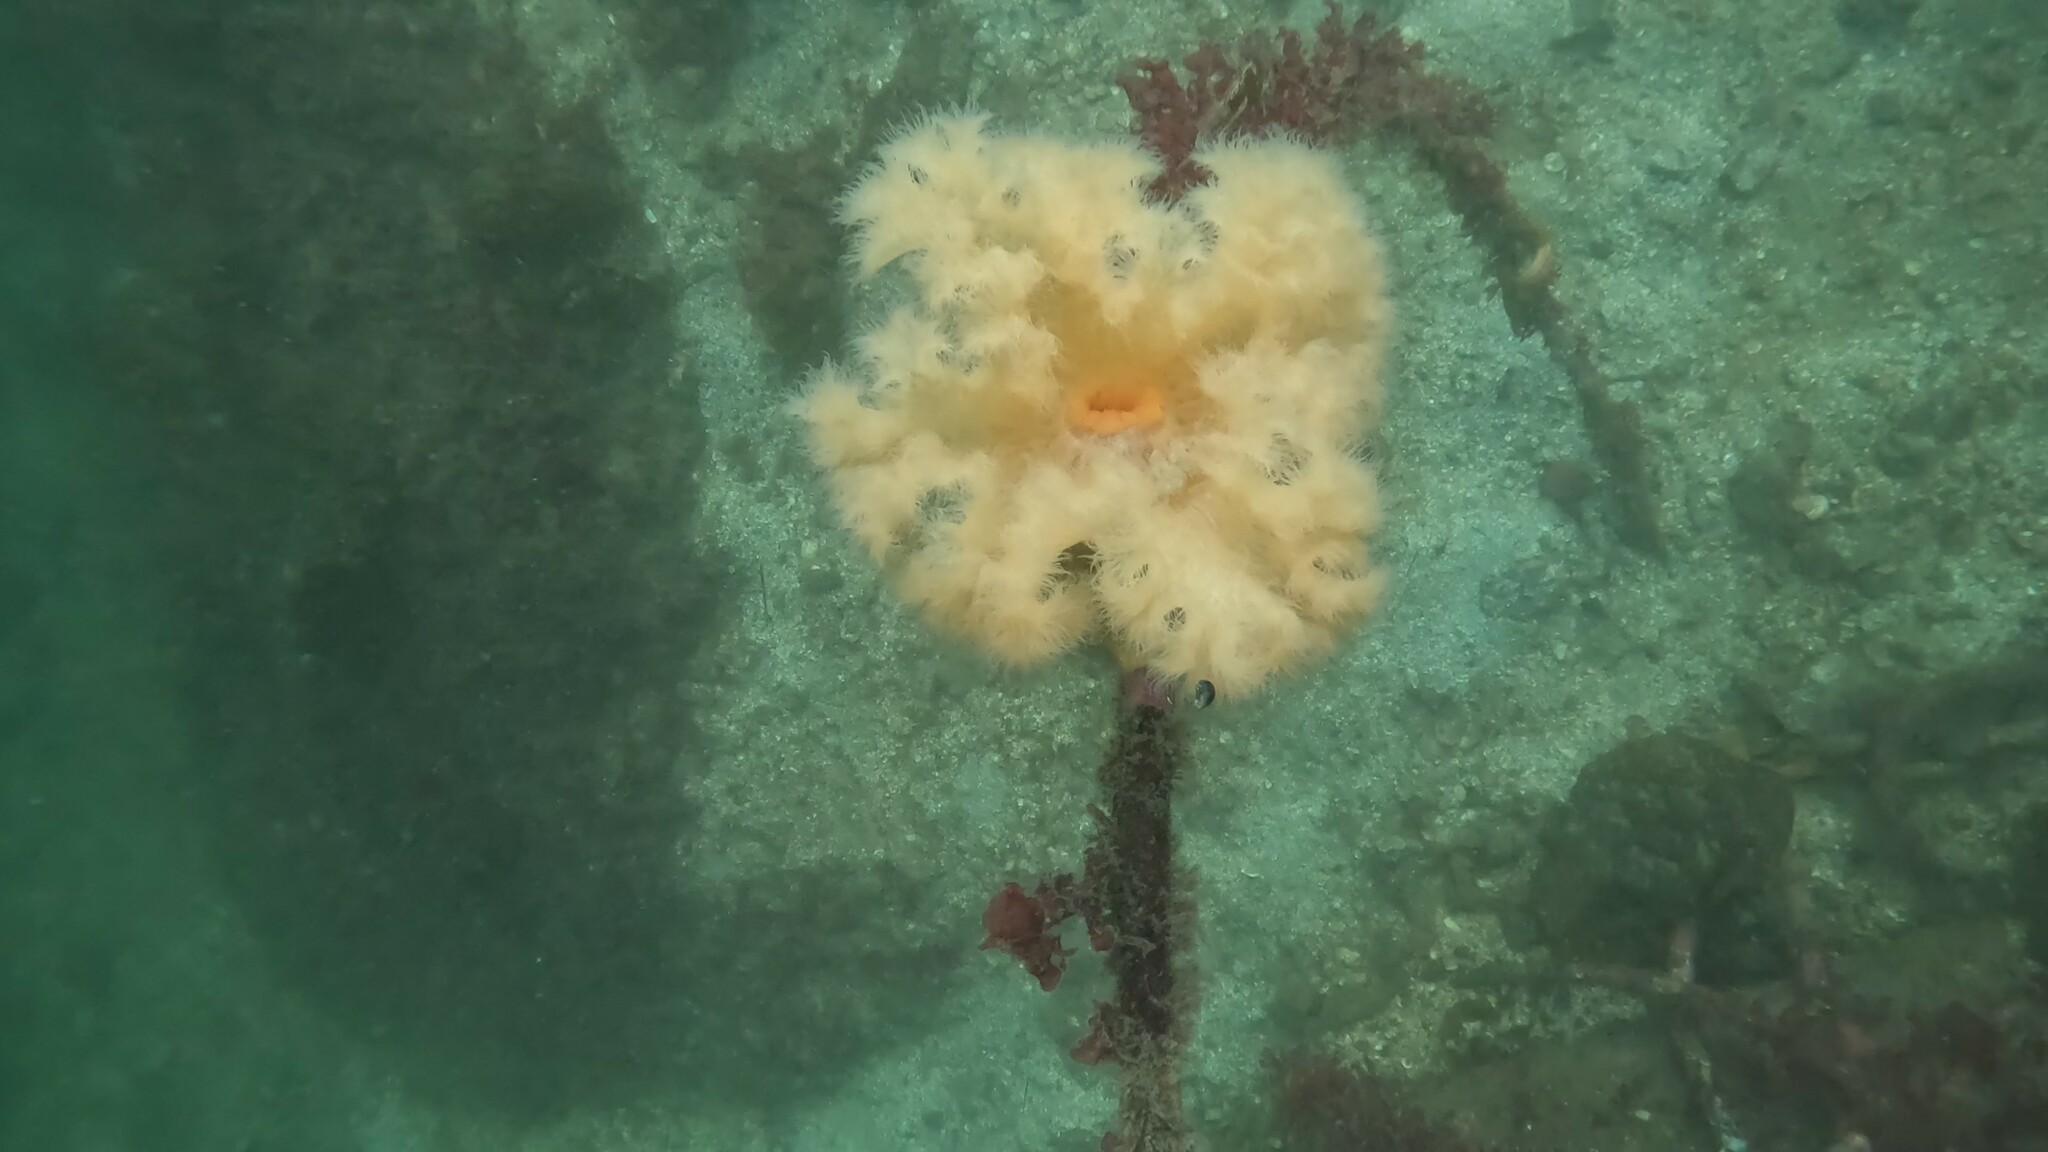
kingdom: Animalia
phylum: Cnidaria
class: Anthozoa
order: Actiniaria
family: Metridiidae
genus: Metridium
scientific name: Metridium farcimen
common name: Gigantic anemone
